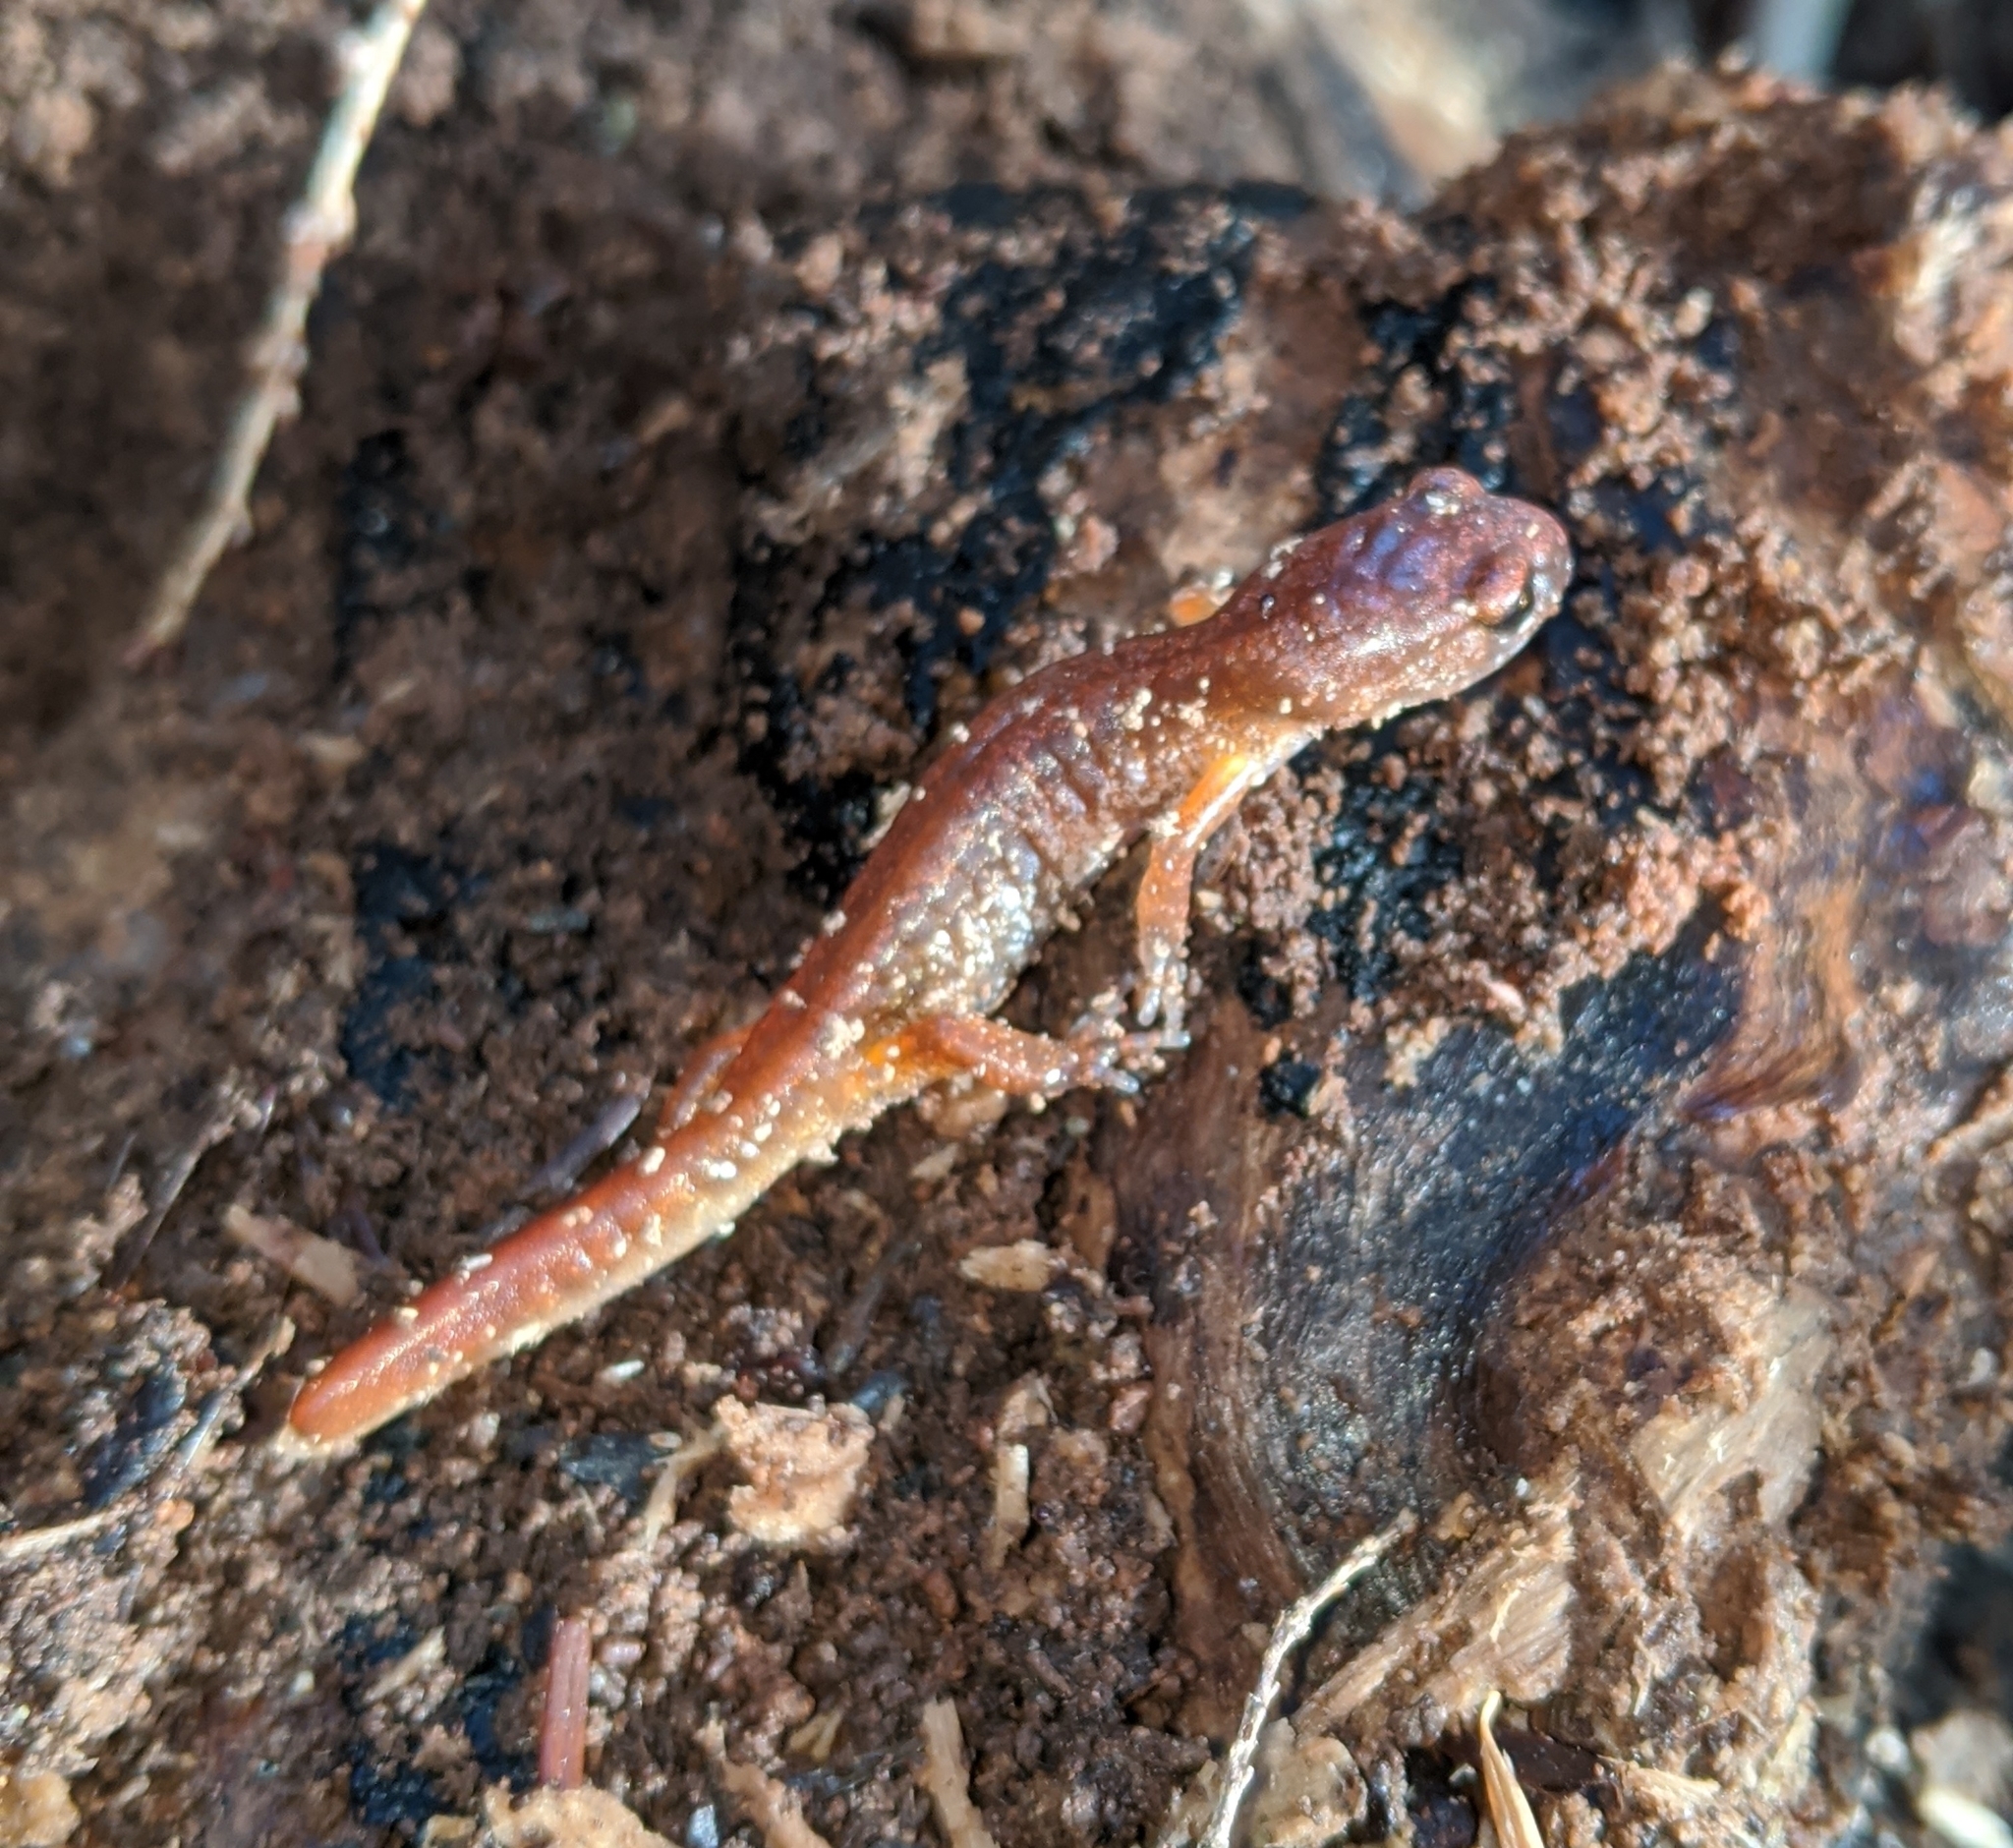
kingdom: Animalia
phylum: Chordata
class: Amphibia
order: Caudata
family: Plethodontidae
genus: Ensatina
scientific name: Ensatina eschscholtzii
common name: Ensatina
